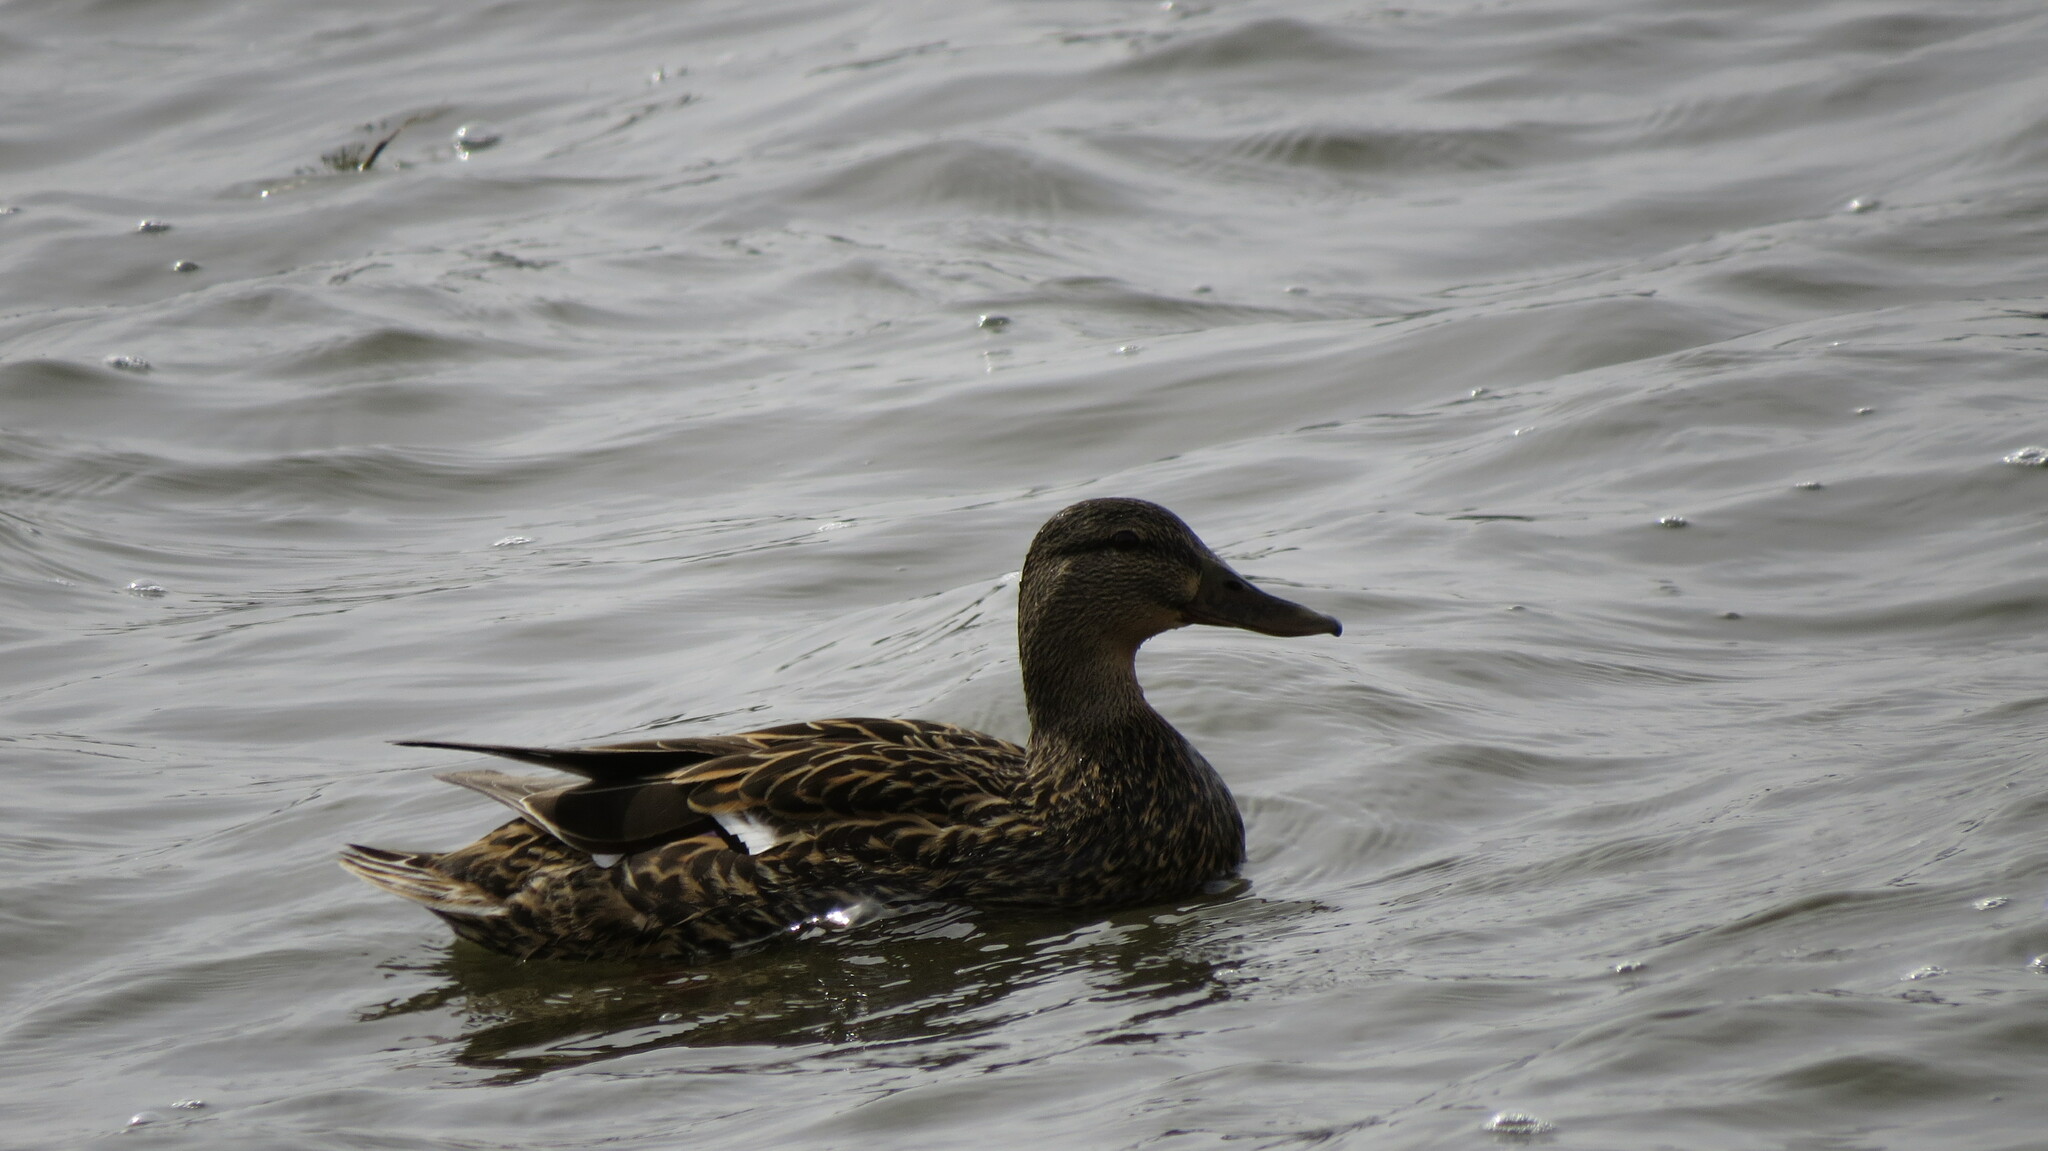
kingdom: Animalia
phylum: Chordata
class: Aves
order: Anseriformes
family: Anatidae
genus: Anas
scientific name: Anas platyrhynchos
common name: Mallard
